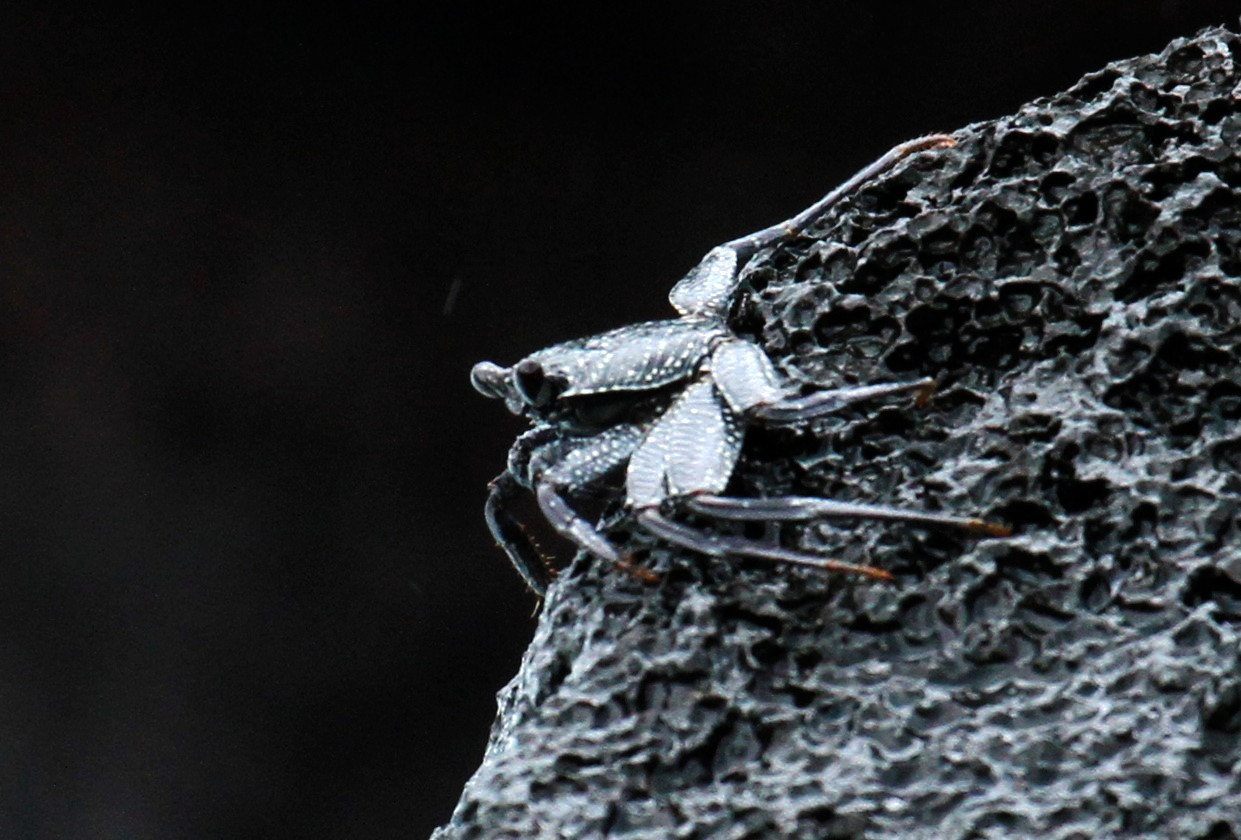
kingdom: Animalia
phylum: Arthropoda
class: Malacostraca
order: Decapoda
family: Grapsidae
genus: Grapsus
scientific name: Grapsus tenuicrustatus
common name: Natal lightfoot crab
